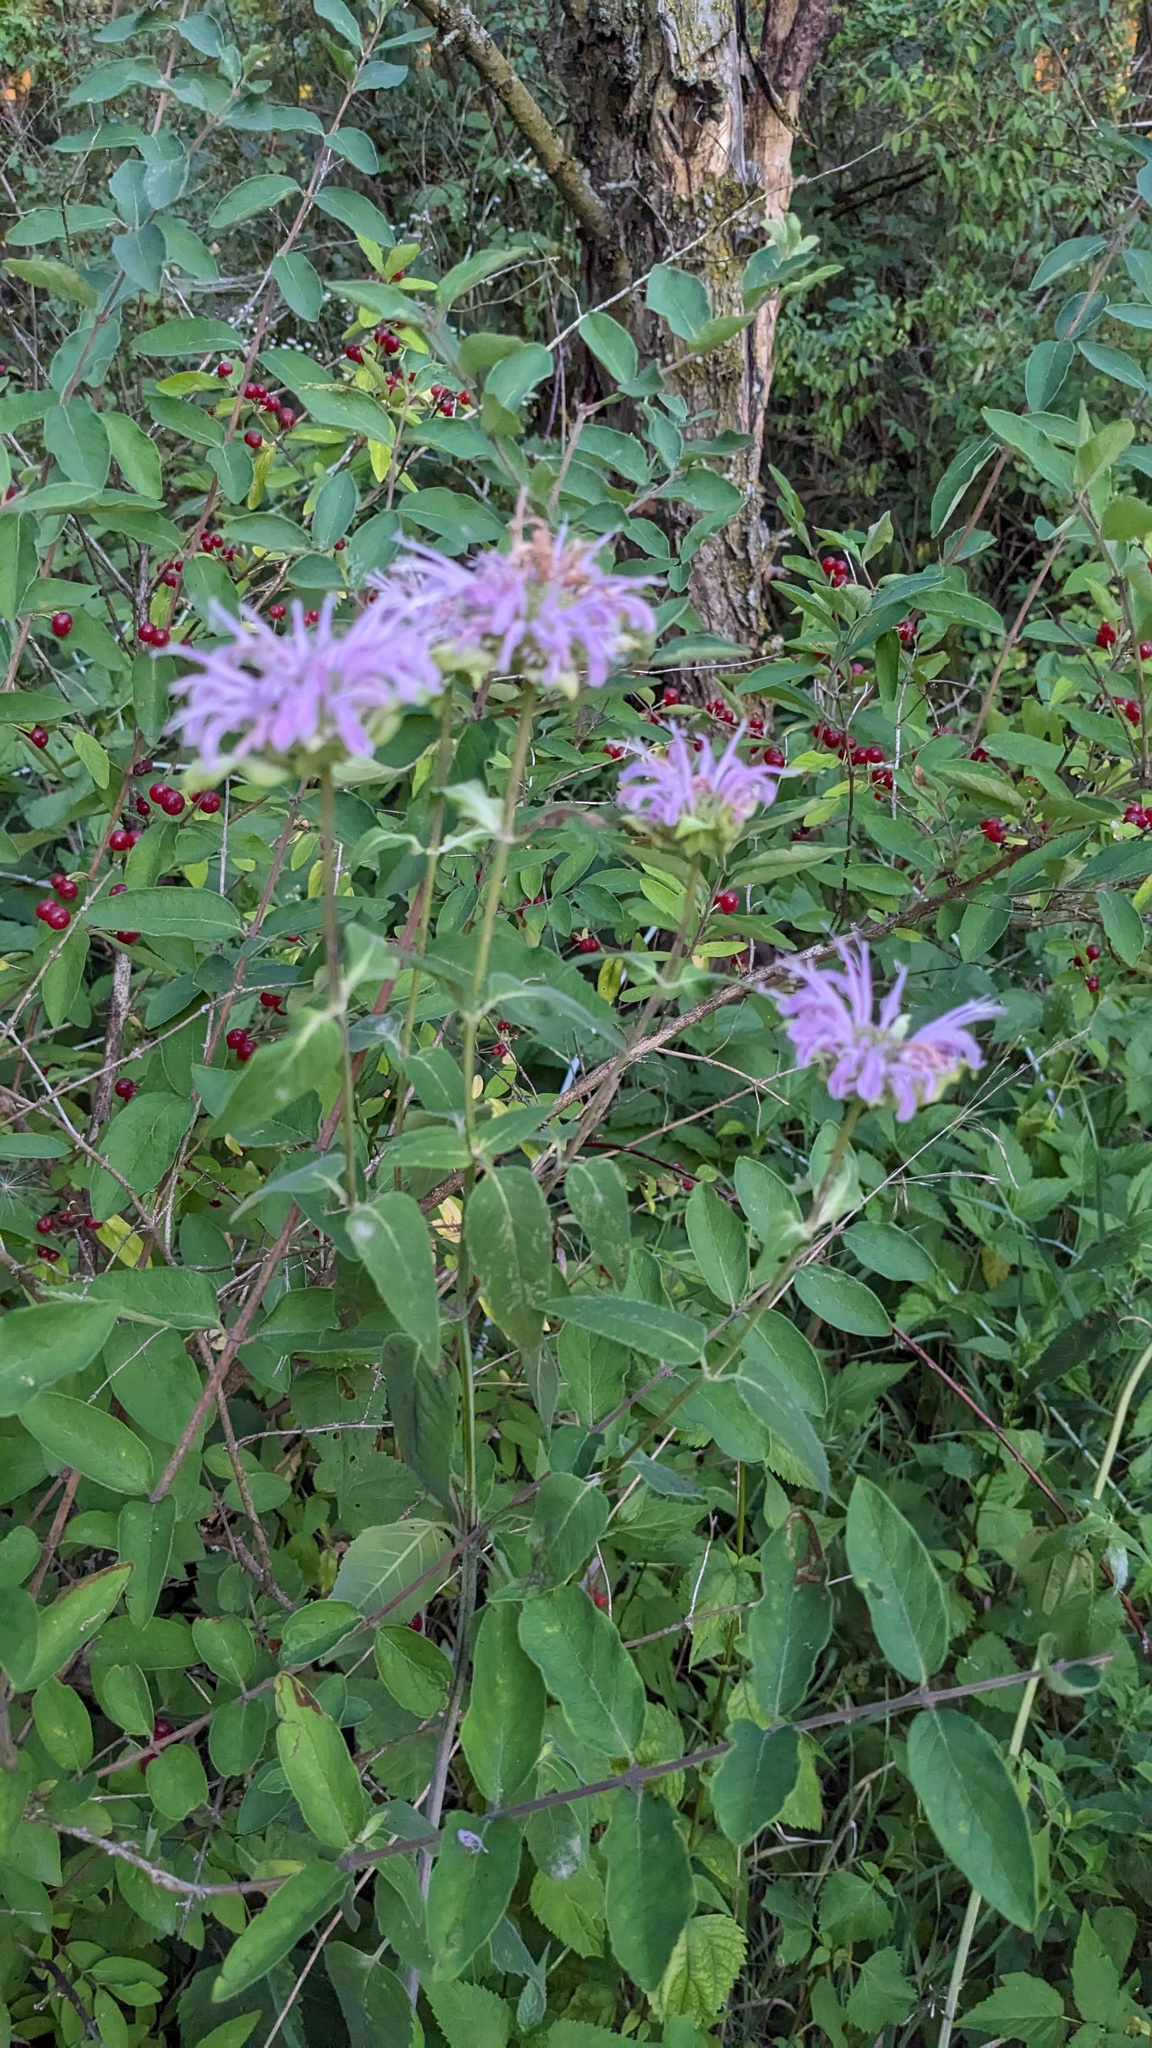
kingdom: Plantae
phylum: Tracheophyta
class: Magnoliopsida
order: Lamiales
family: Lamiaceae
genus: Monarda
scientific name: Monarda fistulosa
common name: Purple beebalm
